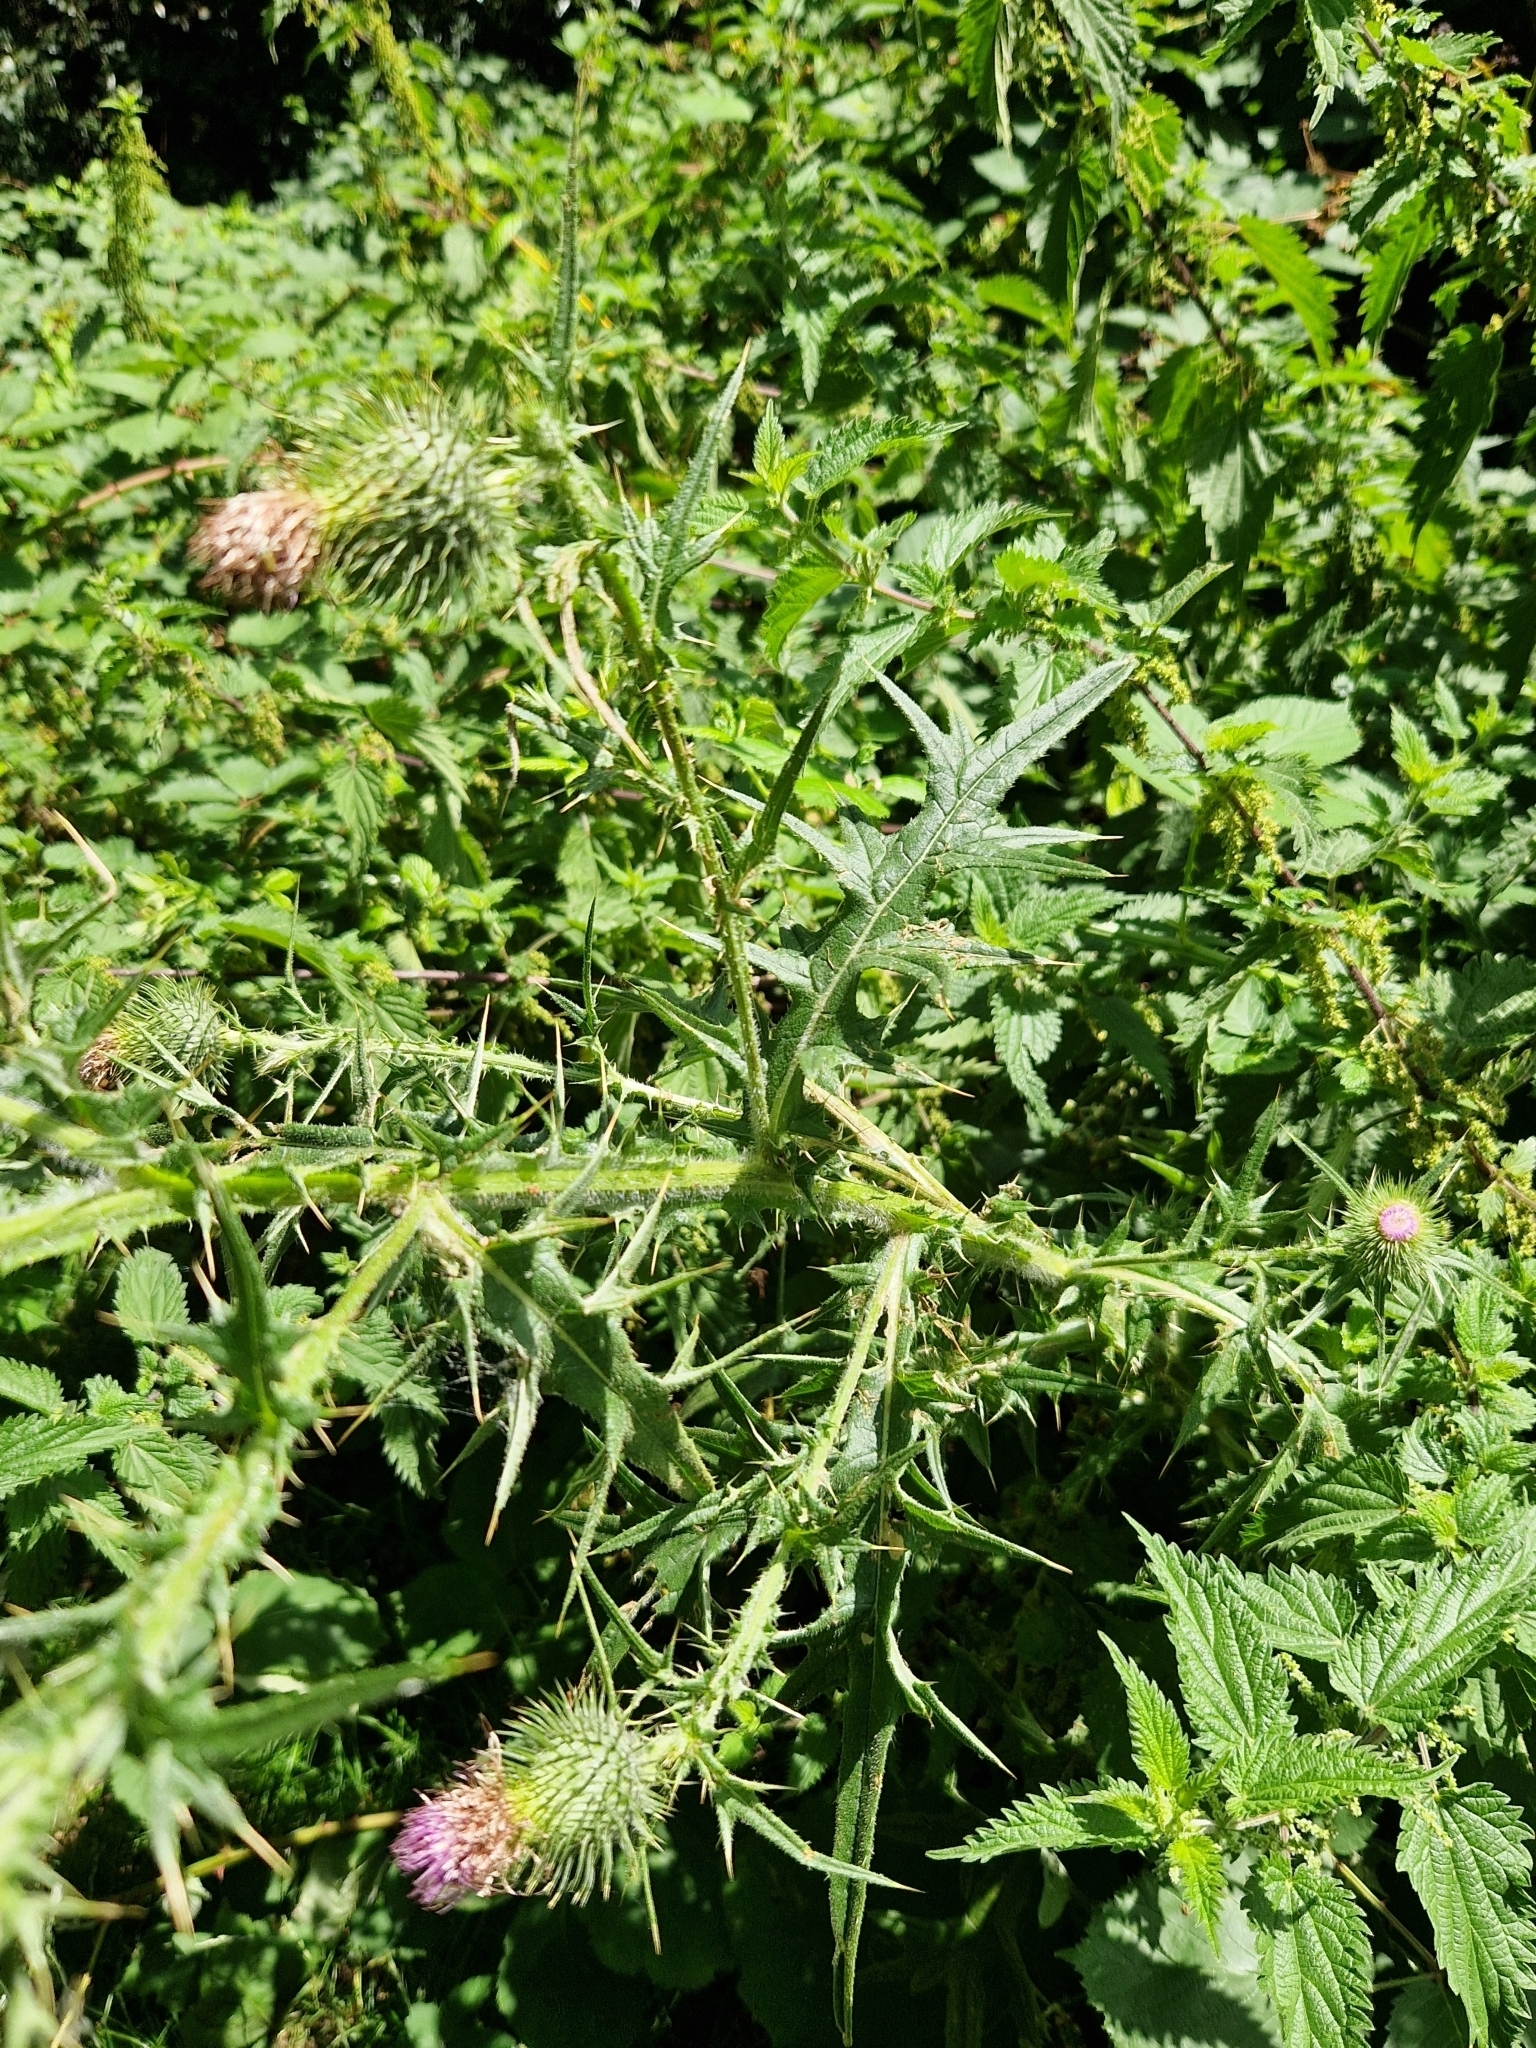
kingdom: Plantae
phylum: Tracheophyta
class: Magnoliopsida
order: Asterales
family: Asteraceae
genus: Cirsium
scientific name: Cirsium vulgare
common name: Bull thistle
